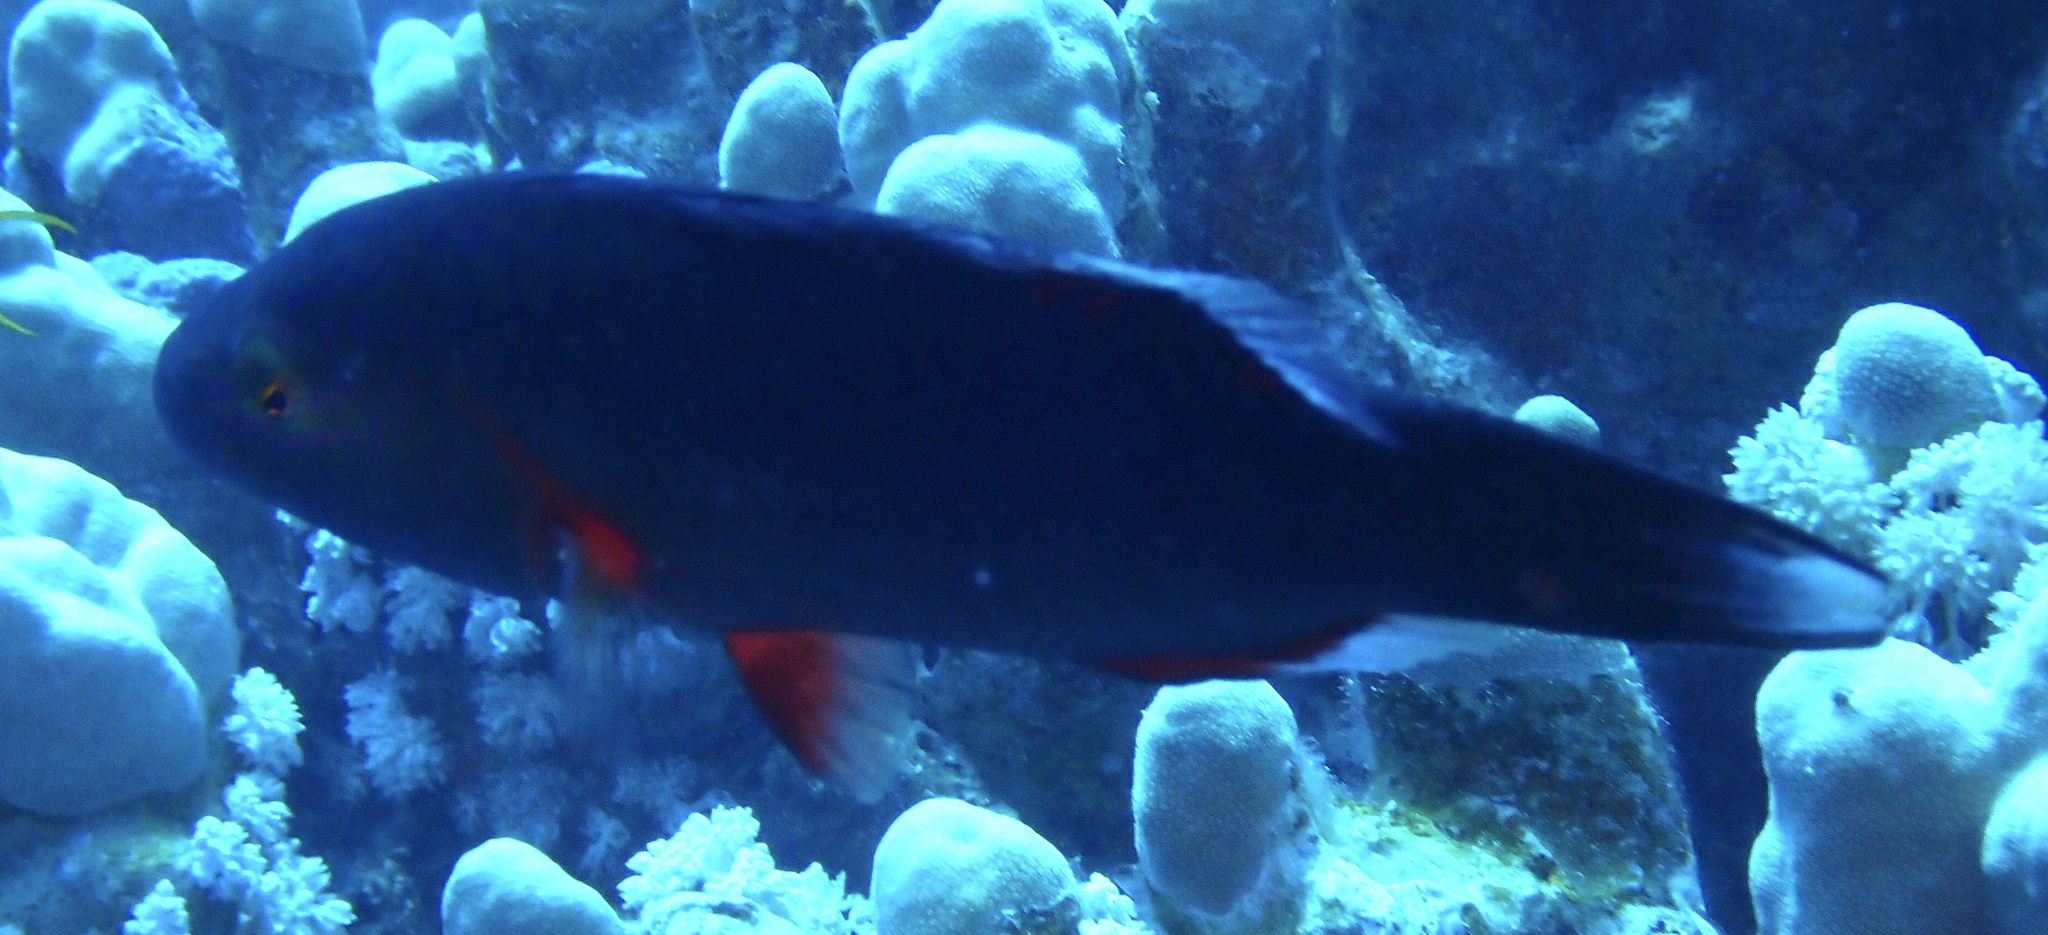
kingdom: Animalia
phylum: Chordata
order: Perciformes
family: Labridae
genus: Oxycheilinus
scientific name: Oxycheilinus digramma
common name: Bandcheek wrasse
